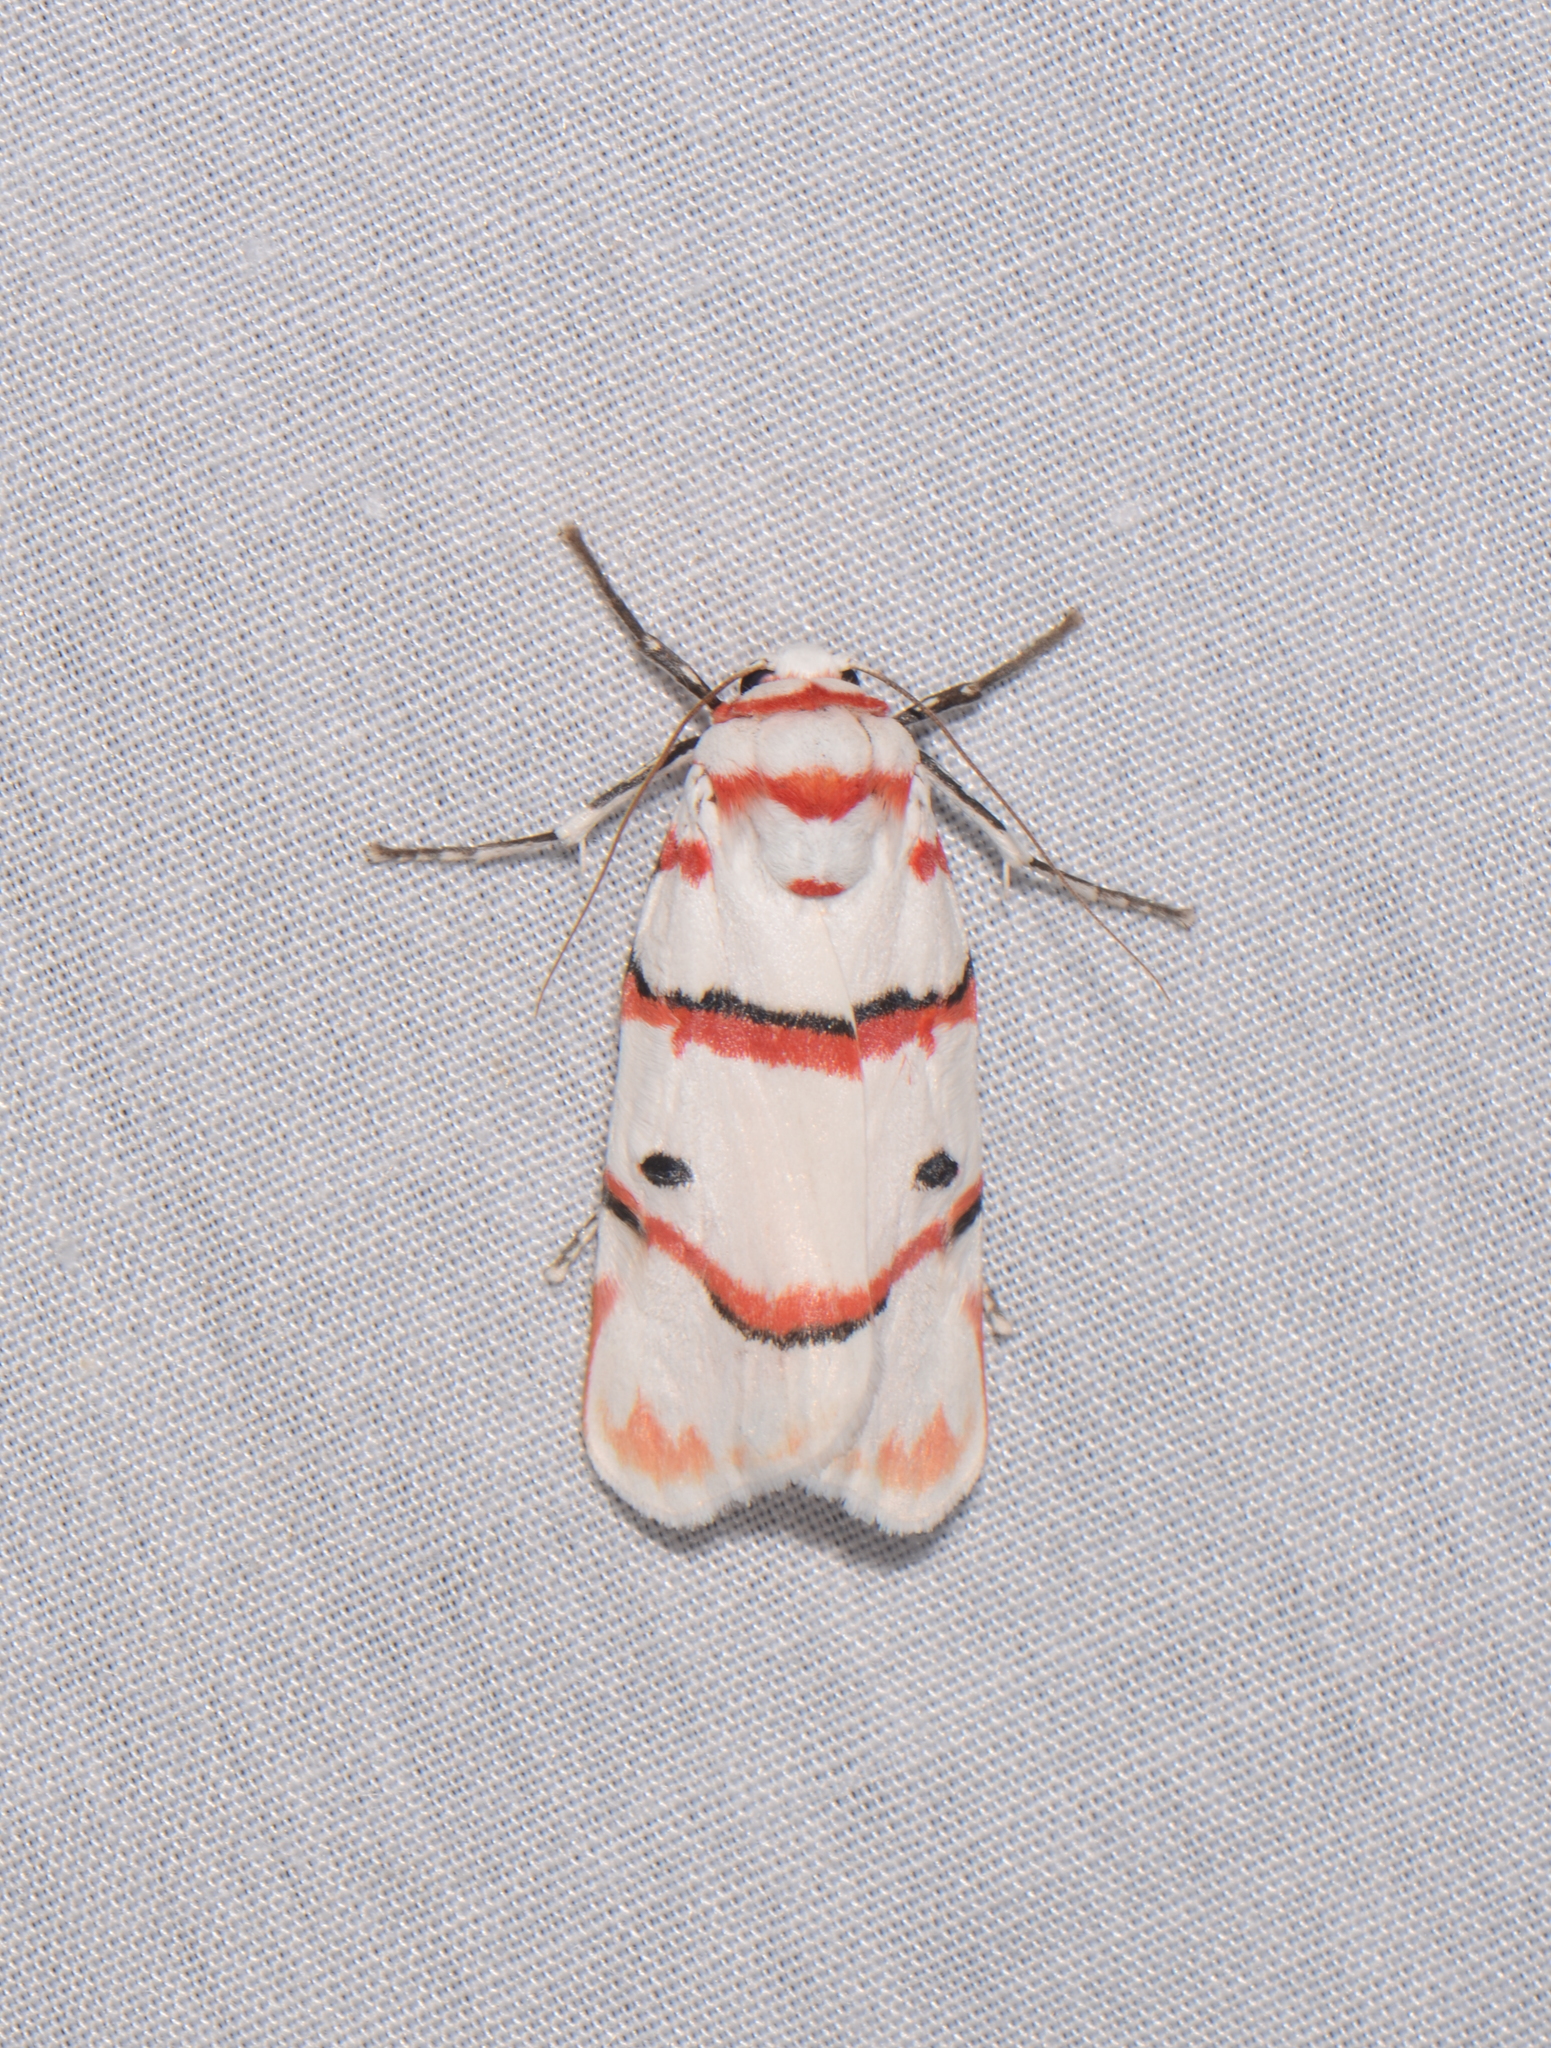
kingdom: Animalia
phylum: Arthropoda
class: Insecta
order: Lepidoptera
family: Erebidae
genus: Cyana
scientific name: Cyana perornata
